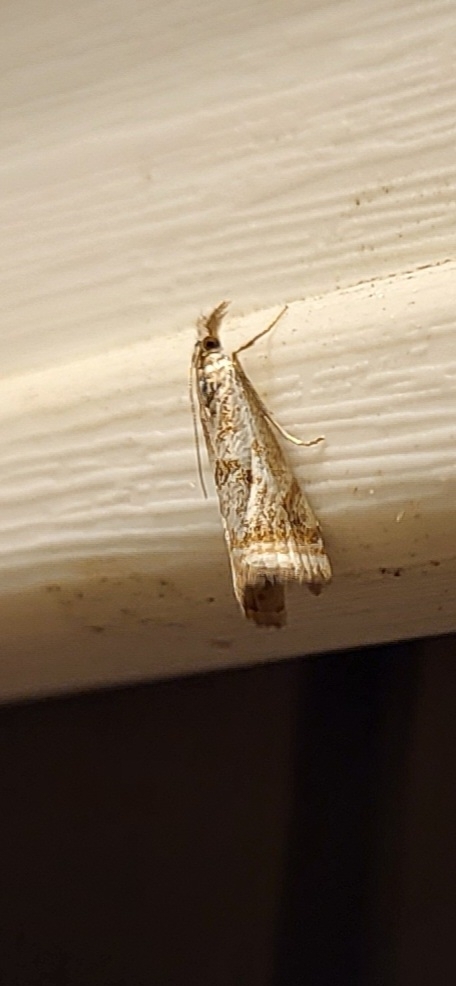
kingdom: Animalia
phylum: Arthropoda
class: Insecta
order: Lepidoptera
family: Crambidae
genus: Microcrambus
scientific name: Microcrambus elegans
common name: Elegant grass-veneer
